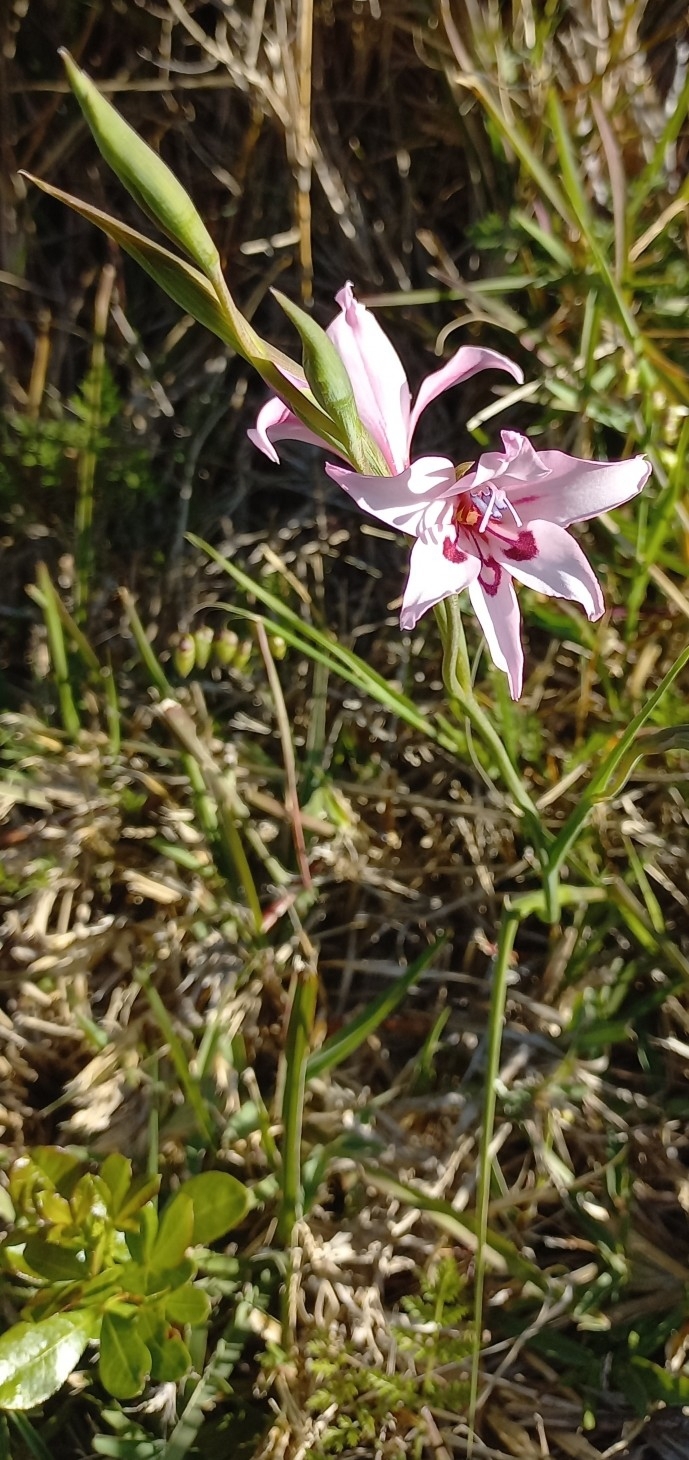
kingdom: Plantae
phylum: Tracheophyta
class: Liliopsida
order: Asparagales
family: Iridaceae
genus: Gladiolus
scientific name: Gladiolus carneus
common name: Painted-lady
